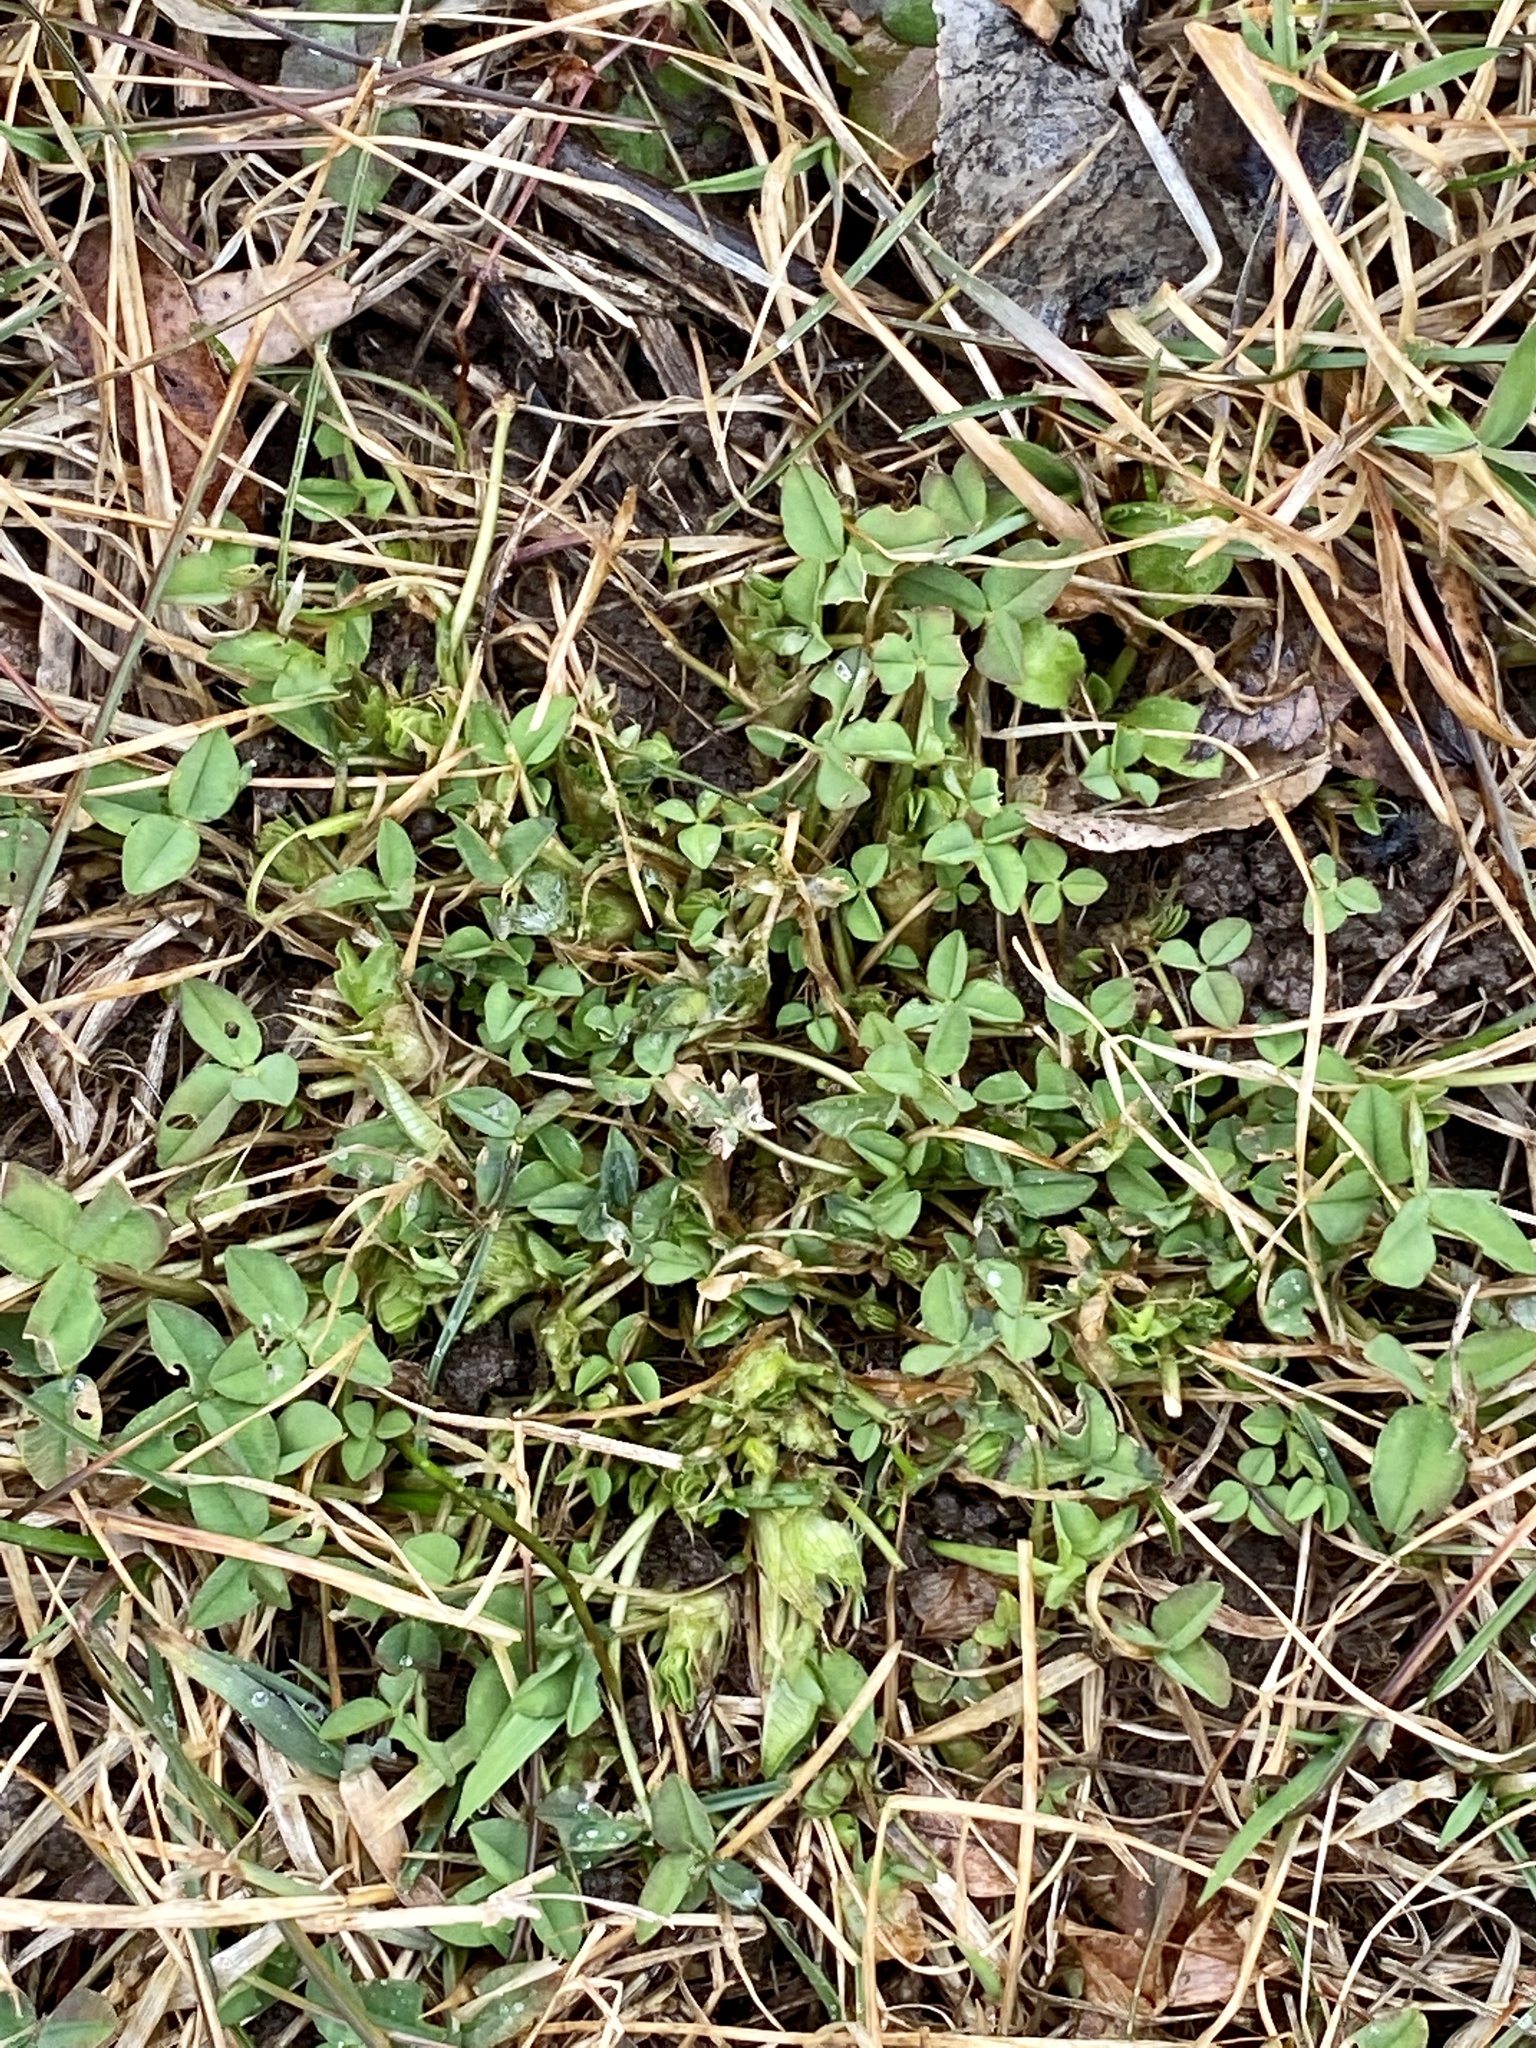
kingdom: Plantae
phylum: Tracheophyta
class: Magnoliopsida
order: Fabales
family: Fabaceae
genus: Trifolium
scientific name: Trifolium repens
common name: White clover
